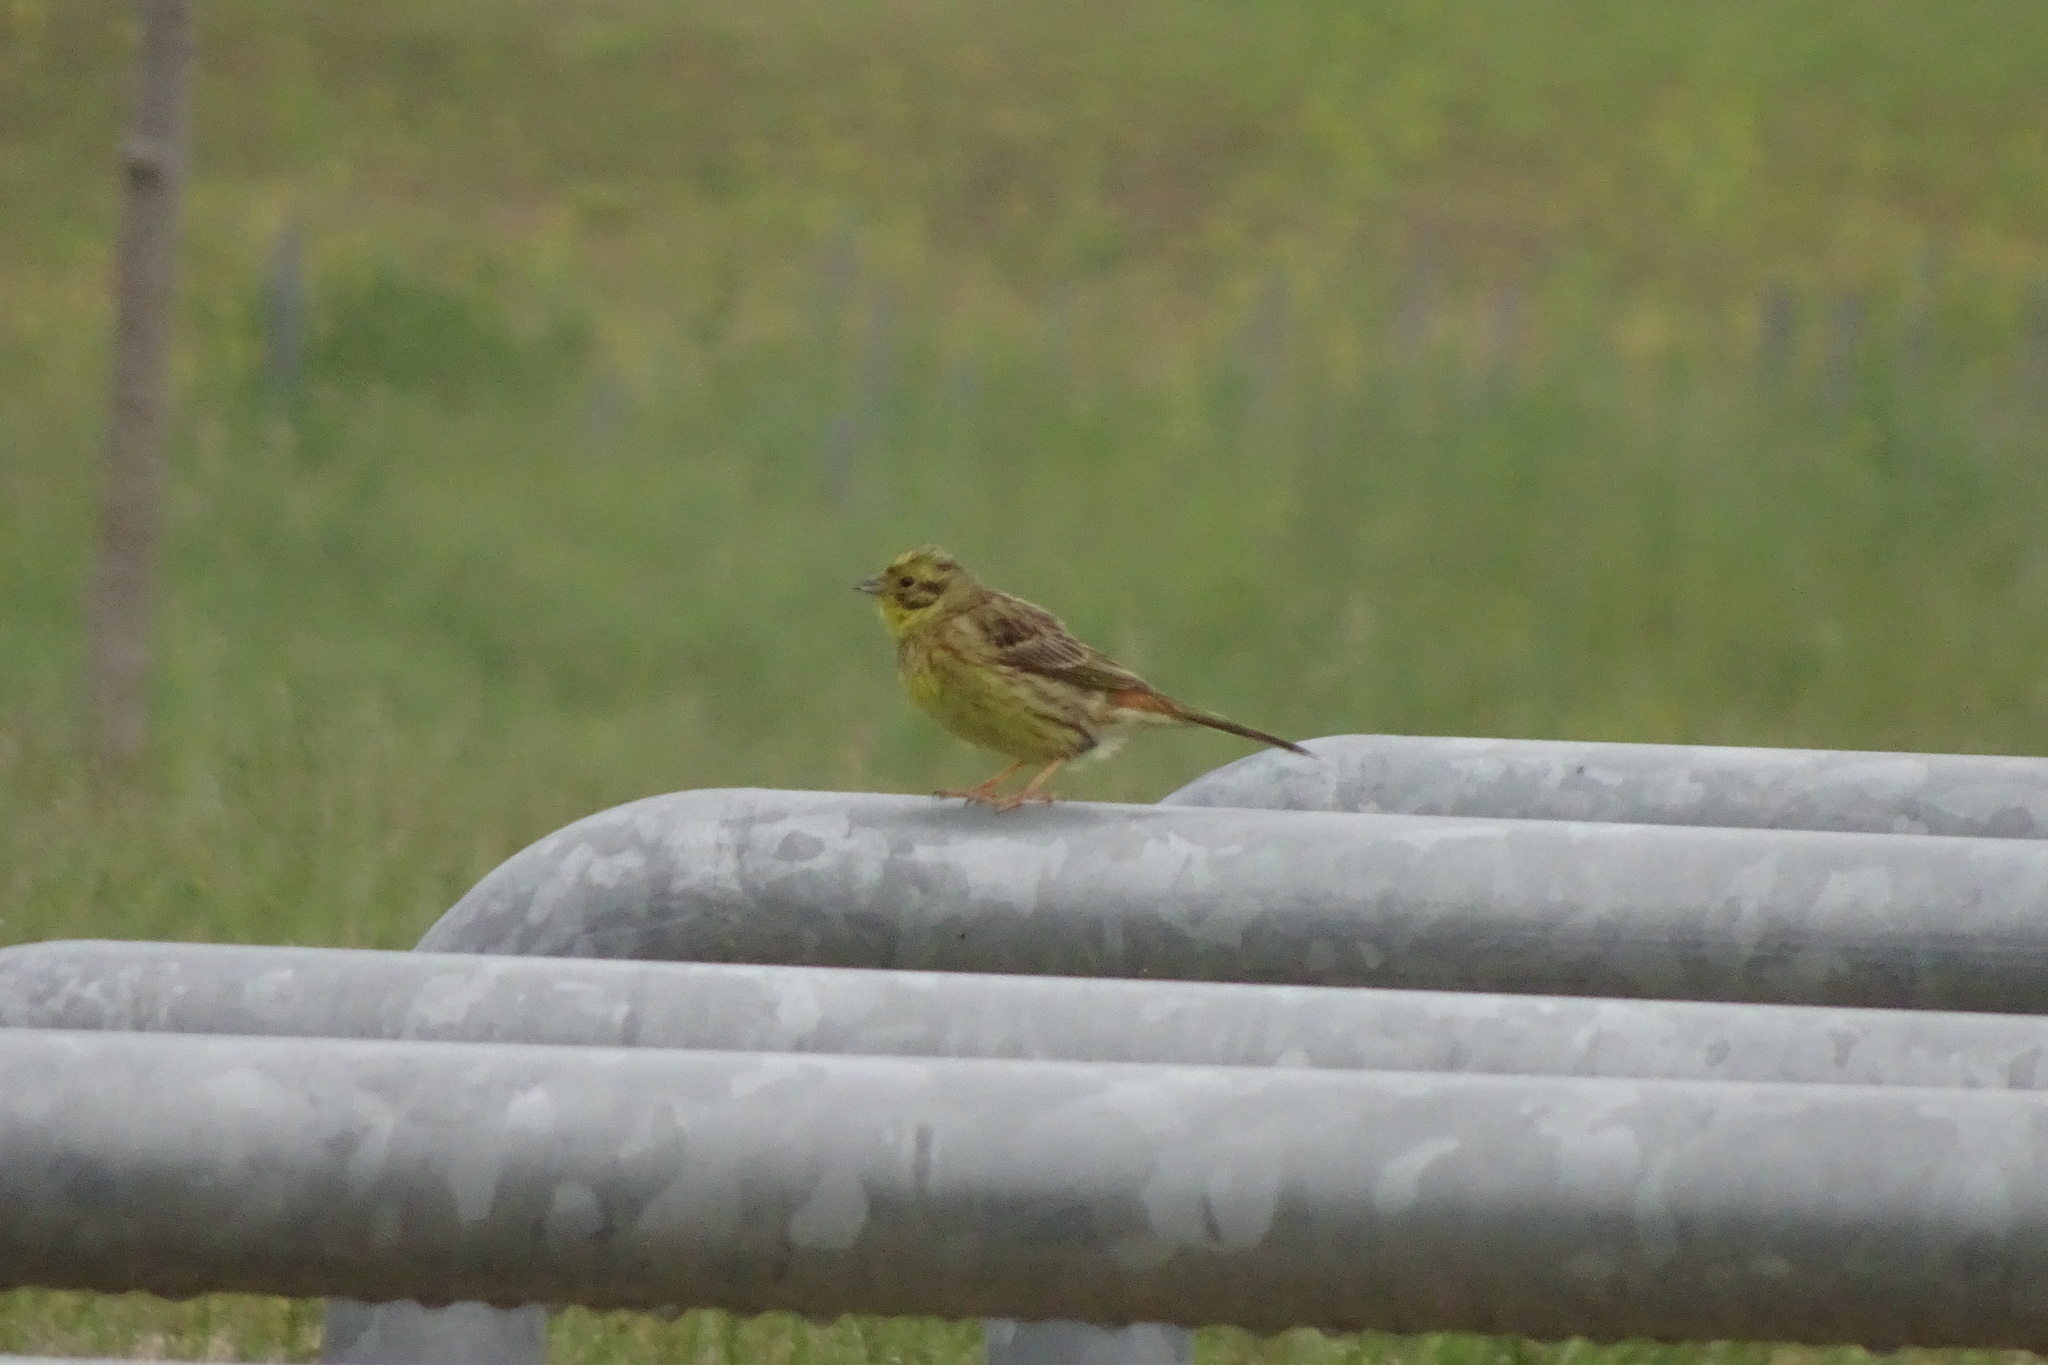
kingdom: Animalia
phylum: Chordata
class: Aves
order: Passeriformes
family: Emberizidae
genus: Emberiza
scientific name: Emberiza citrinella
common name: Yellowhammer
